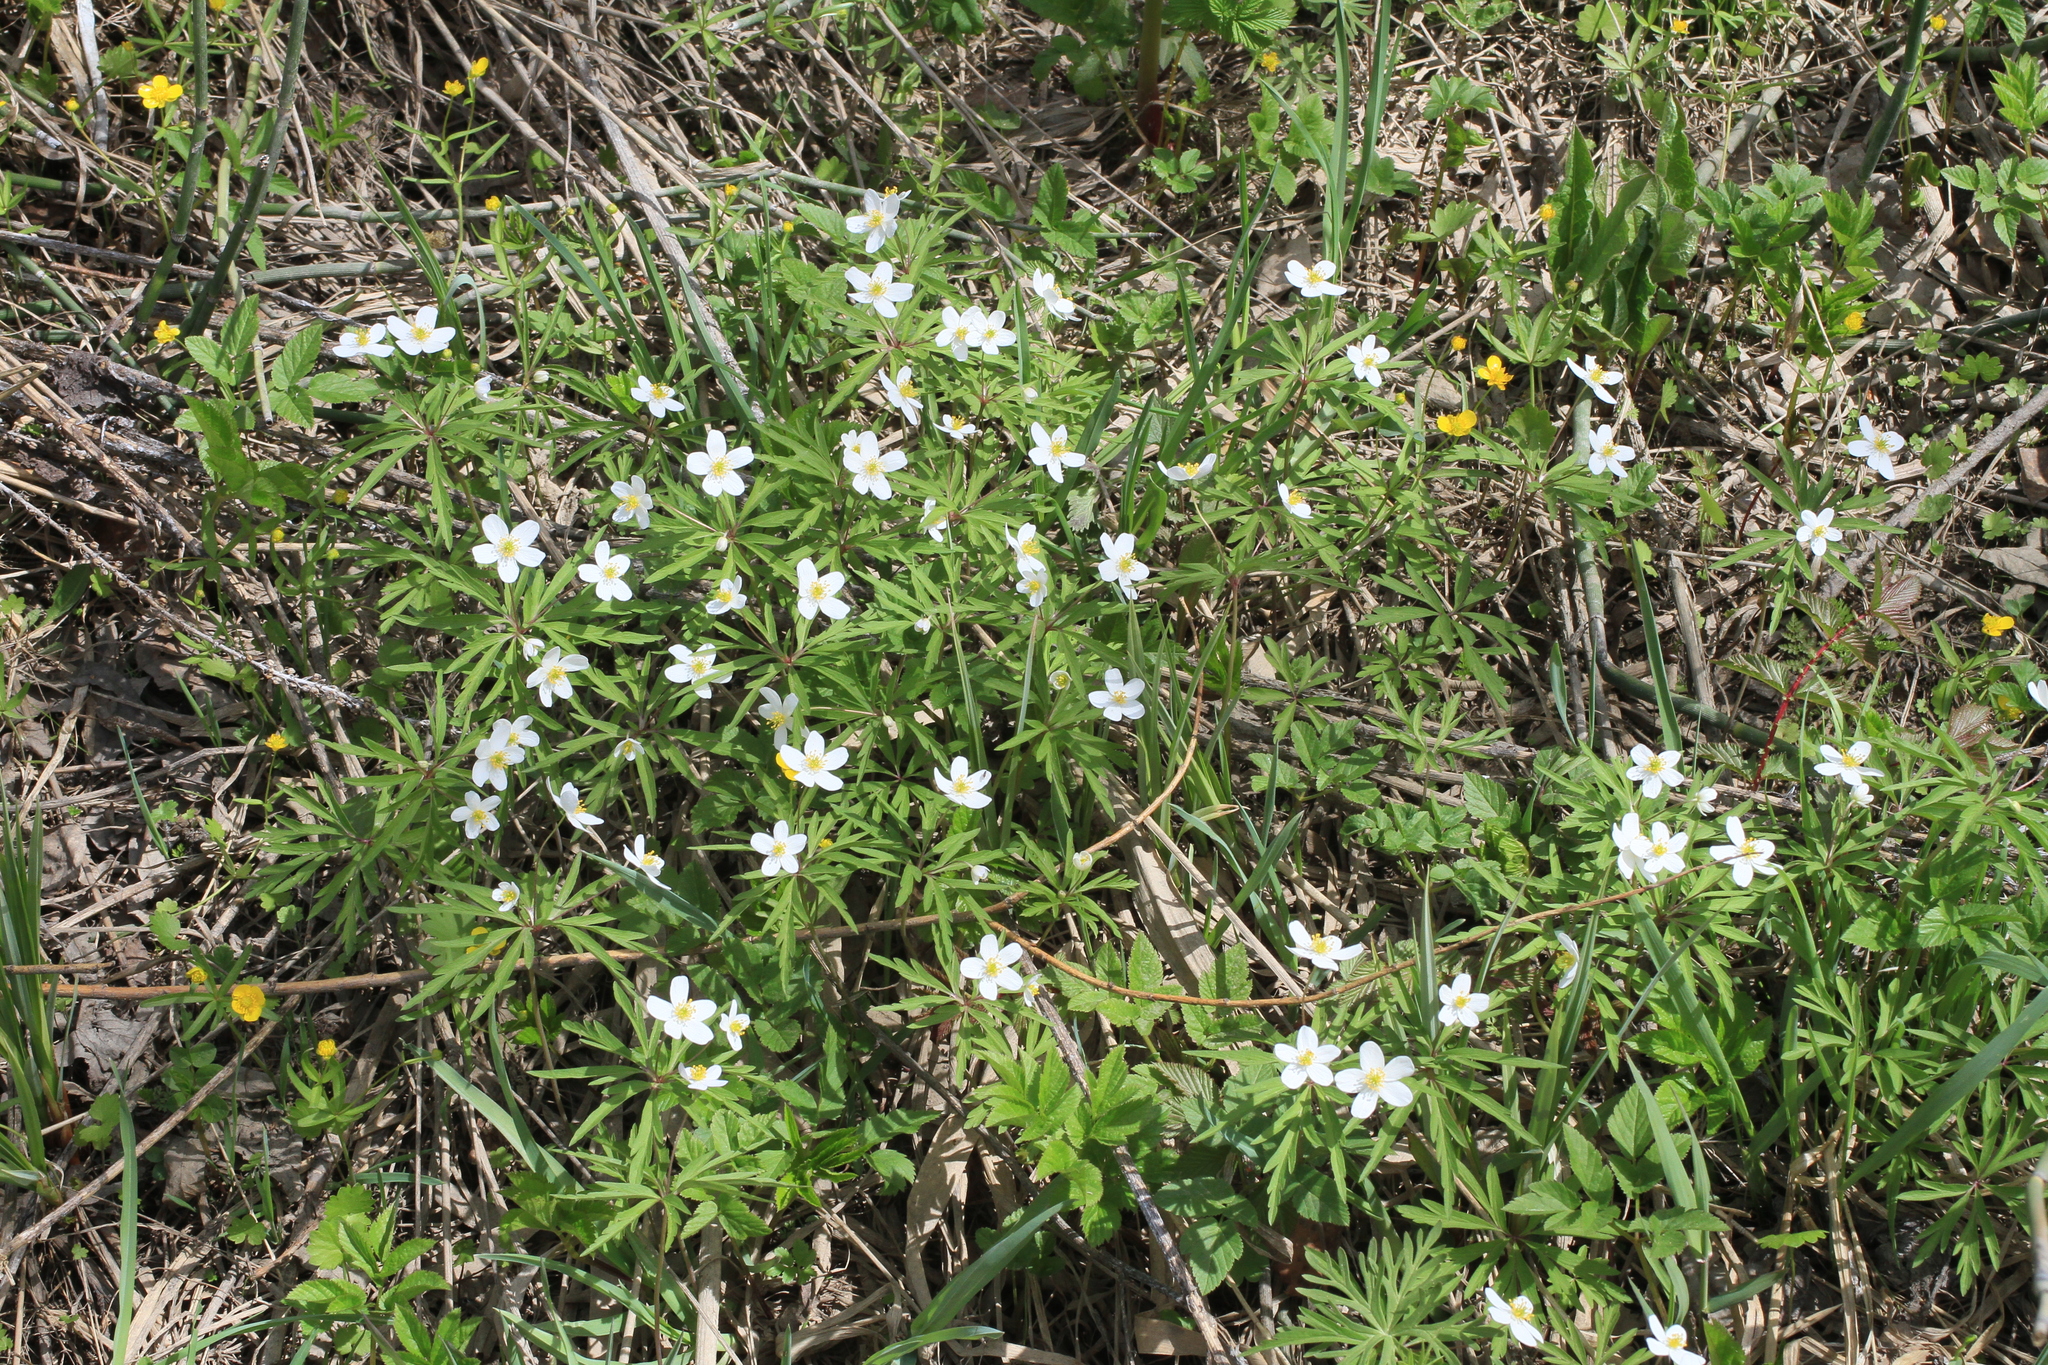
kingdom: Plantae
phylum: Tracheophyta
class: Magnoliopsida
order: Ranunculales
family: Ranunculaceae
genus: Anemone
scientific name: Anemone caerulea
